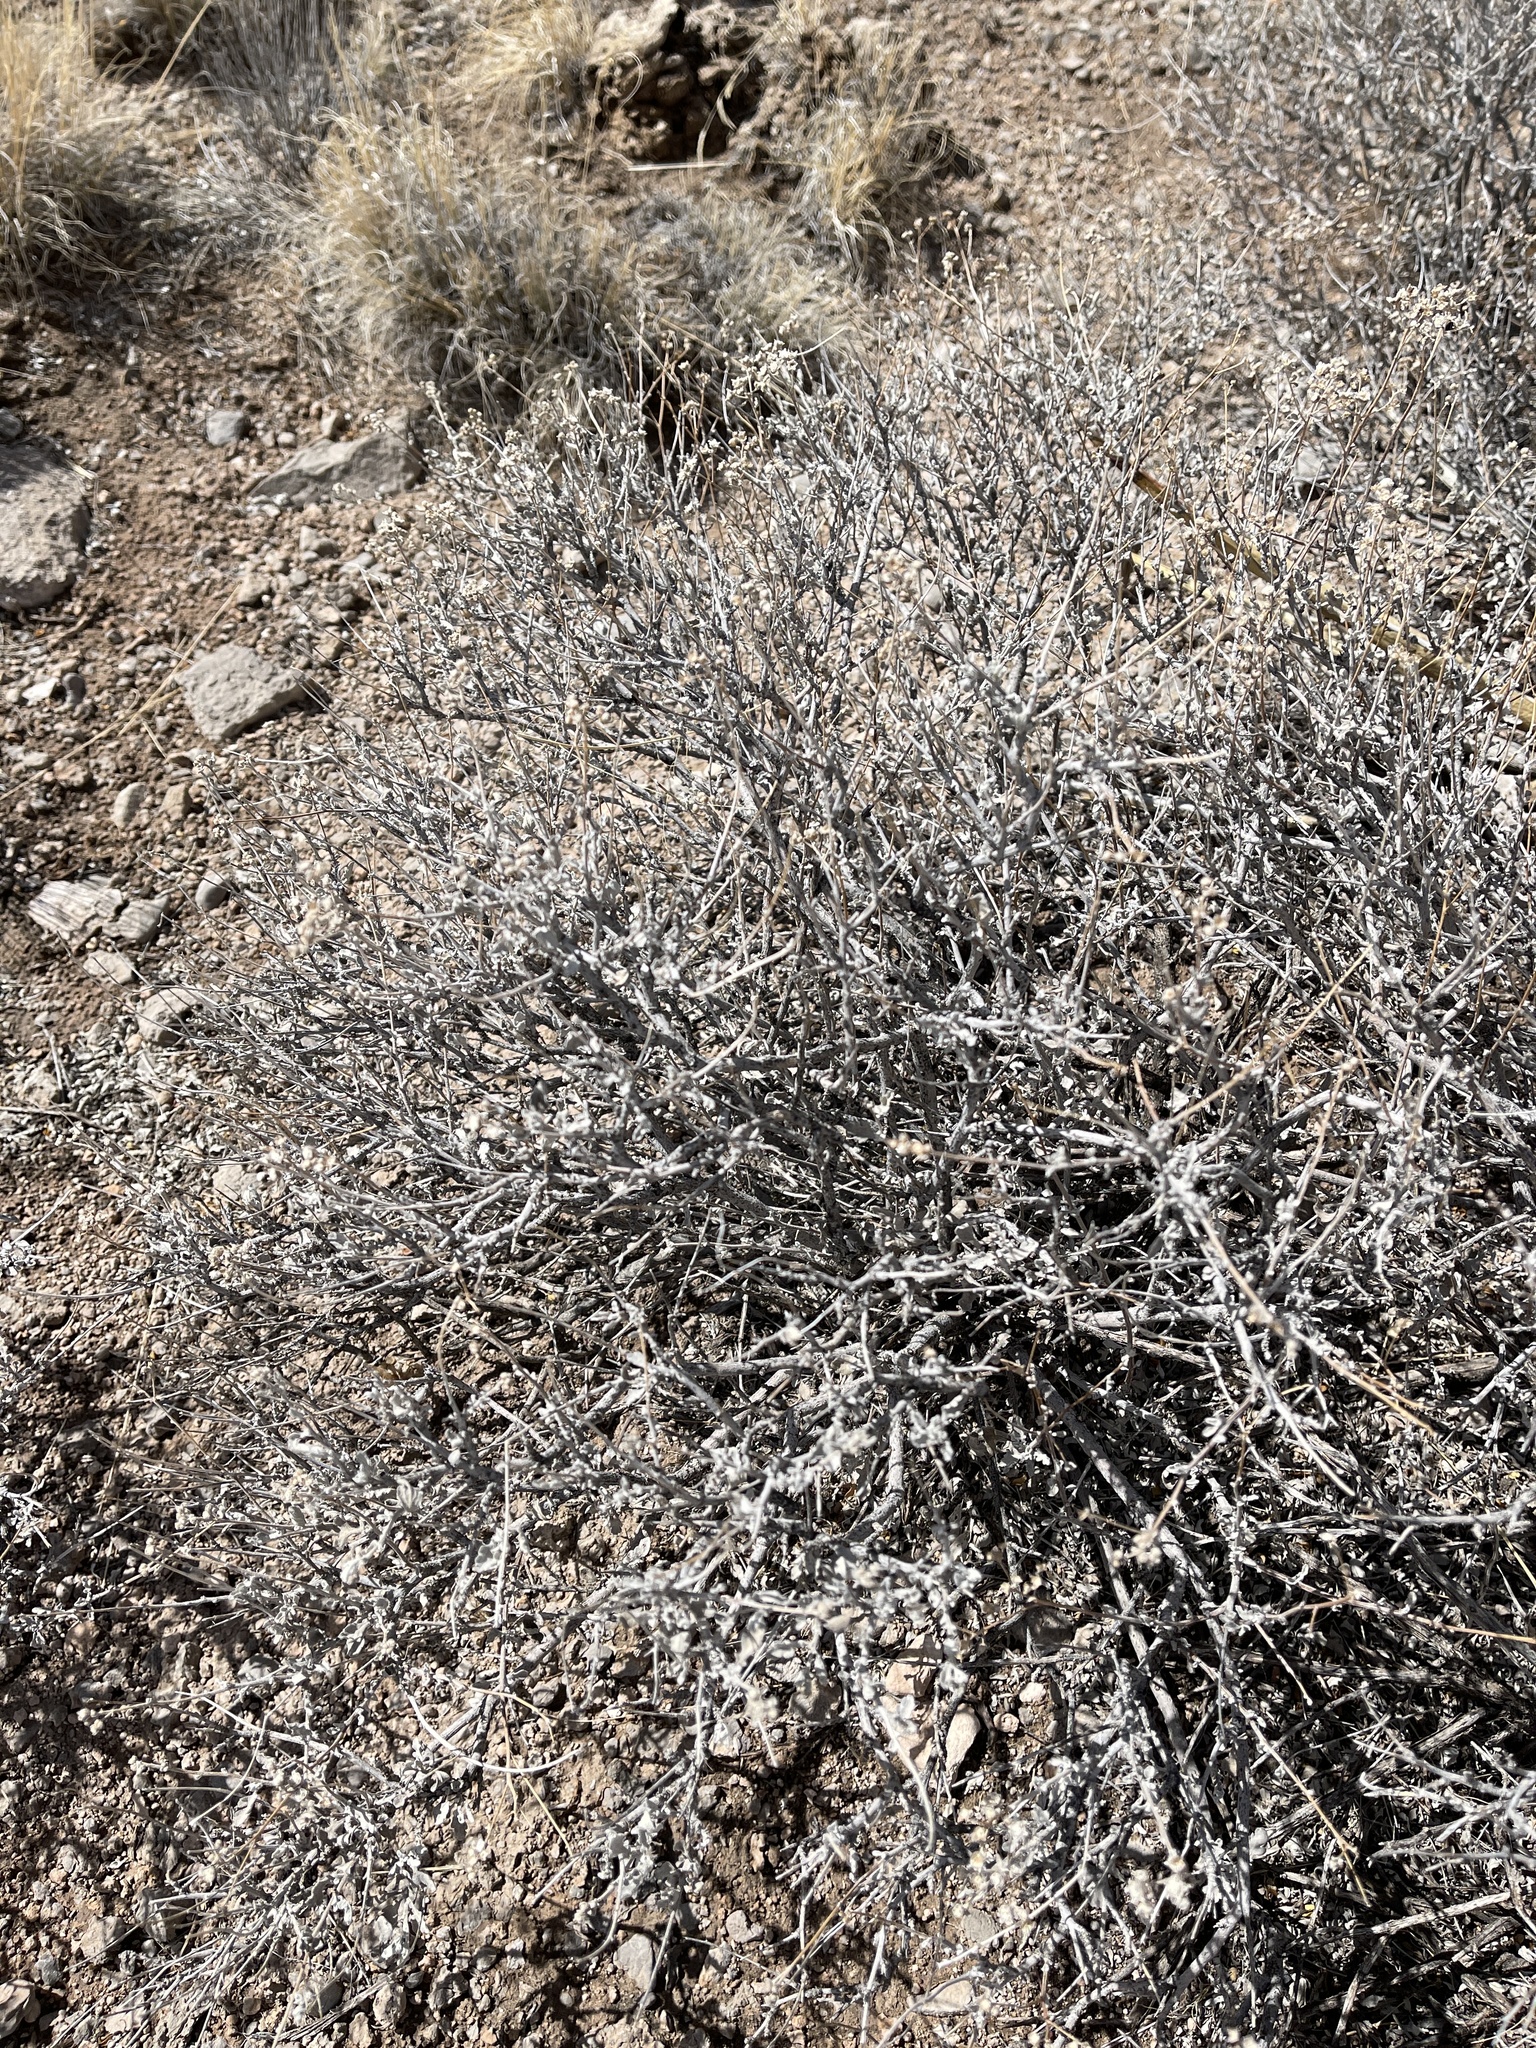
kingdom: Plantae
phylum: Tracheophyta
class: Magnoliopsida
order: Asterales
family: Asteraceae
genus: Parthenium
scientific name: Parthenium incanum
